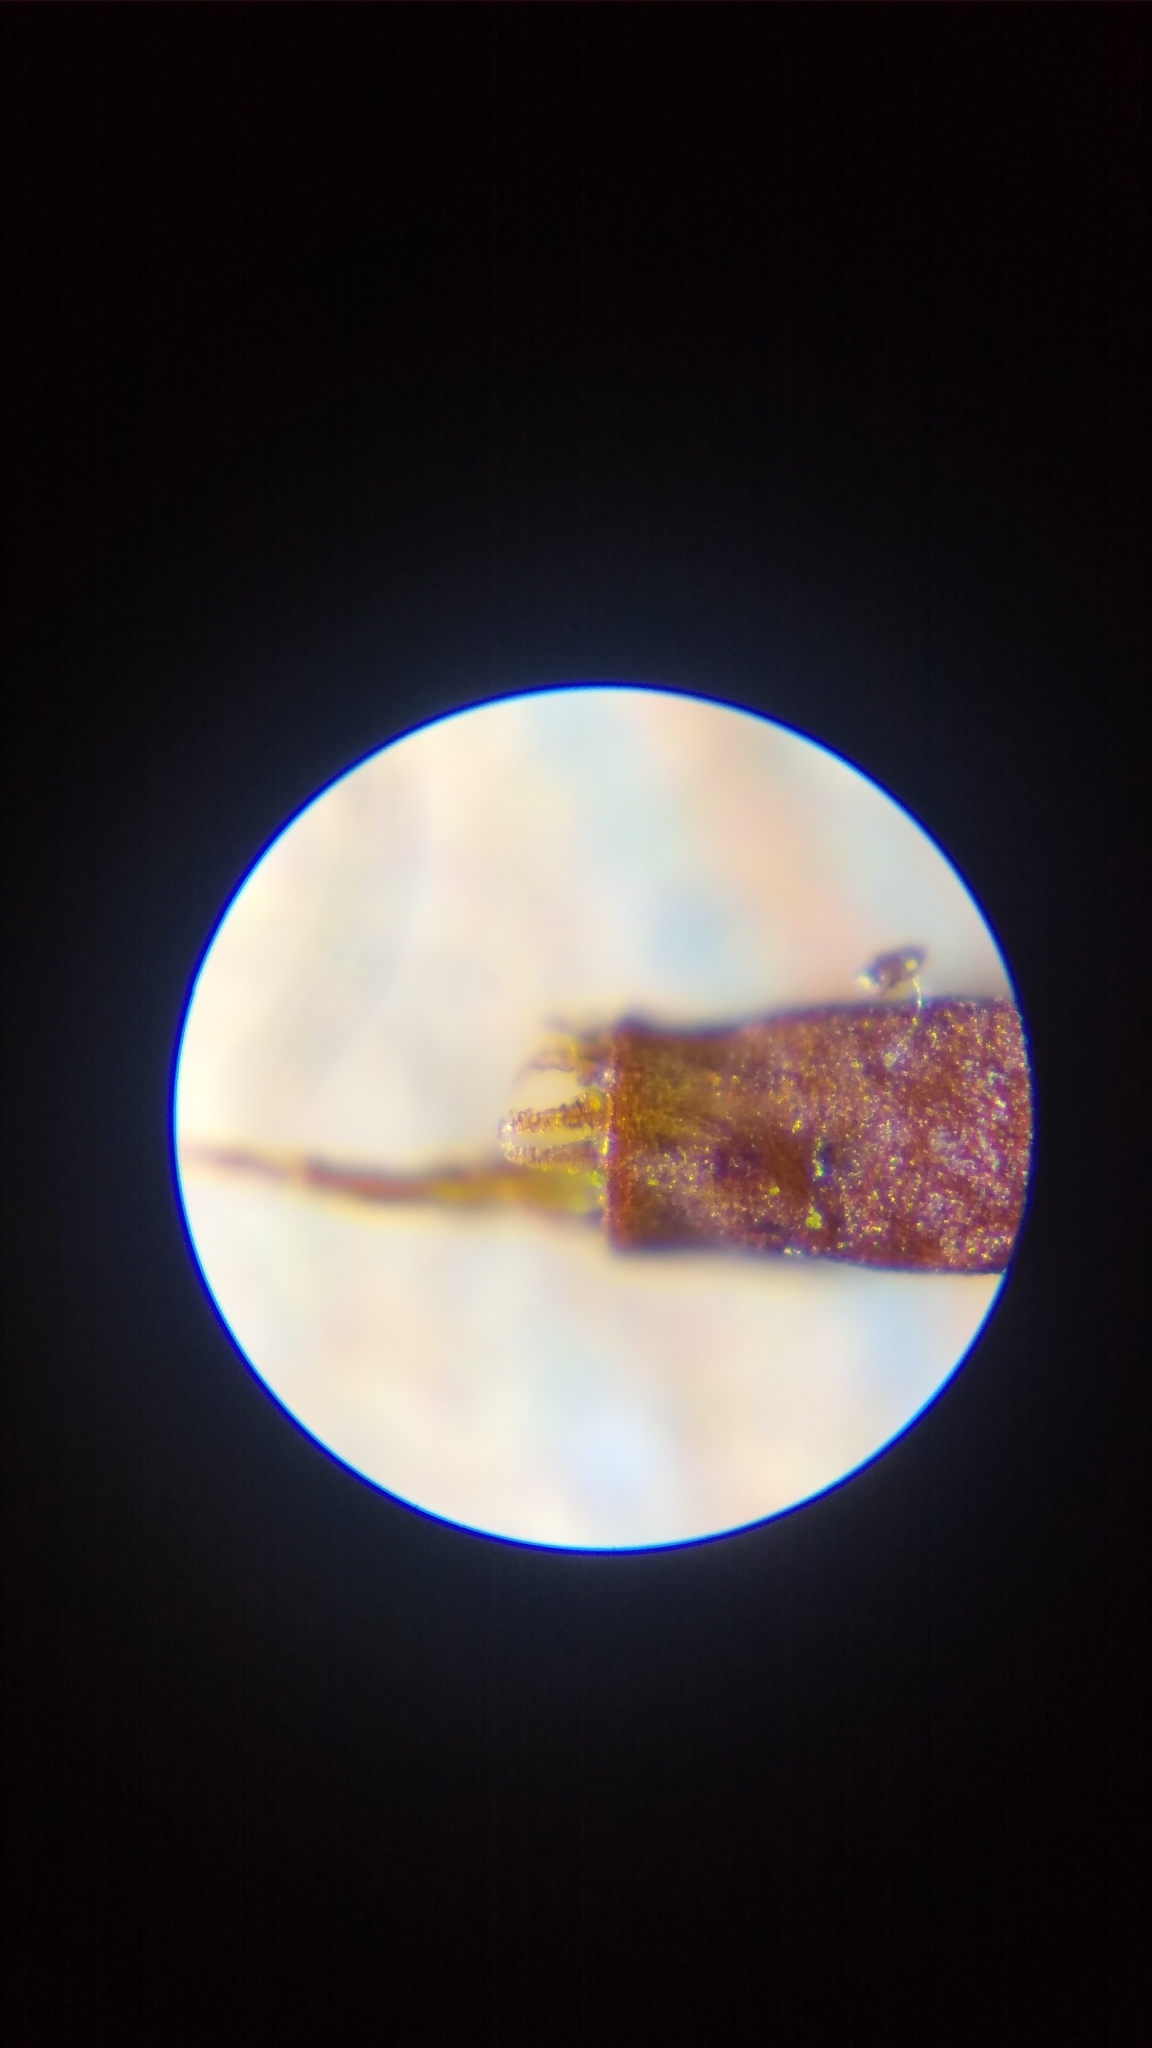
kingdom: Plantae
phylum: Bryophyta
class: Bryopsida
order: Hypnales
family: Climaciaceae
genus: Climacium
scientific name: Climacium americanum
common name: American tree moss
